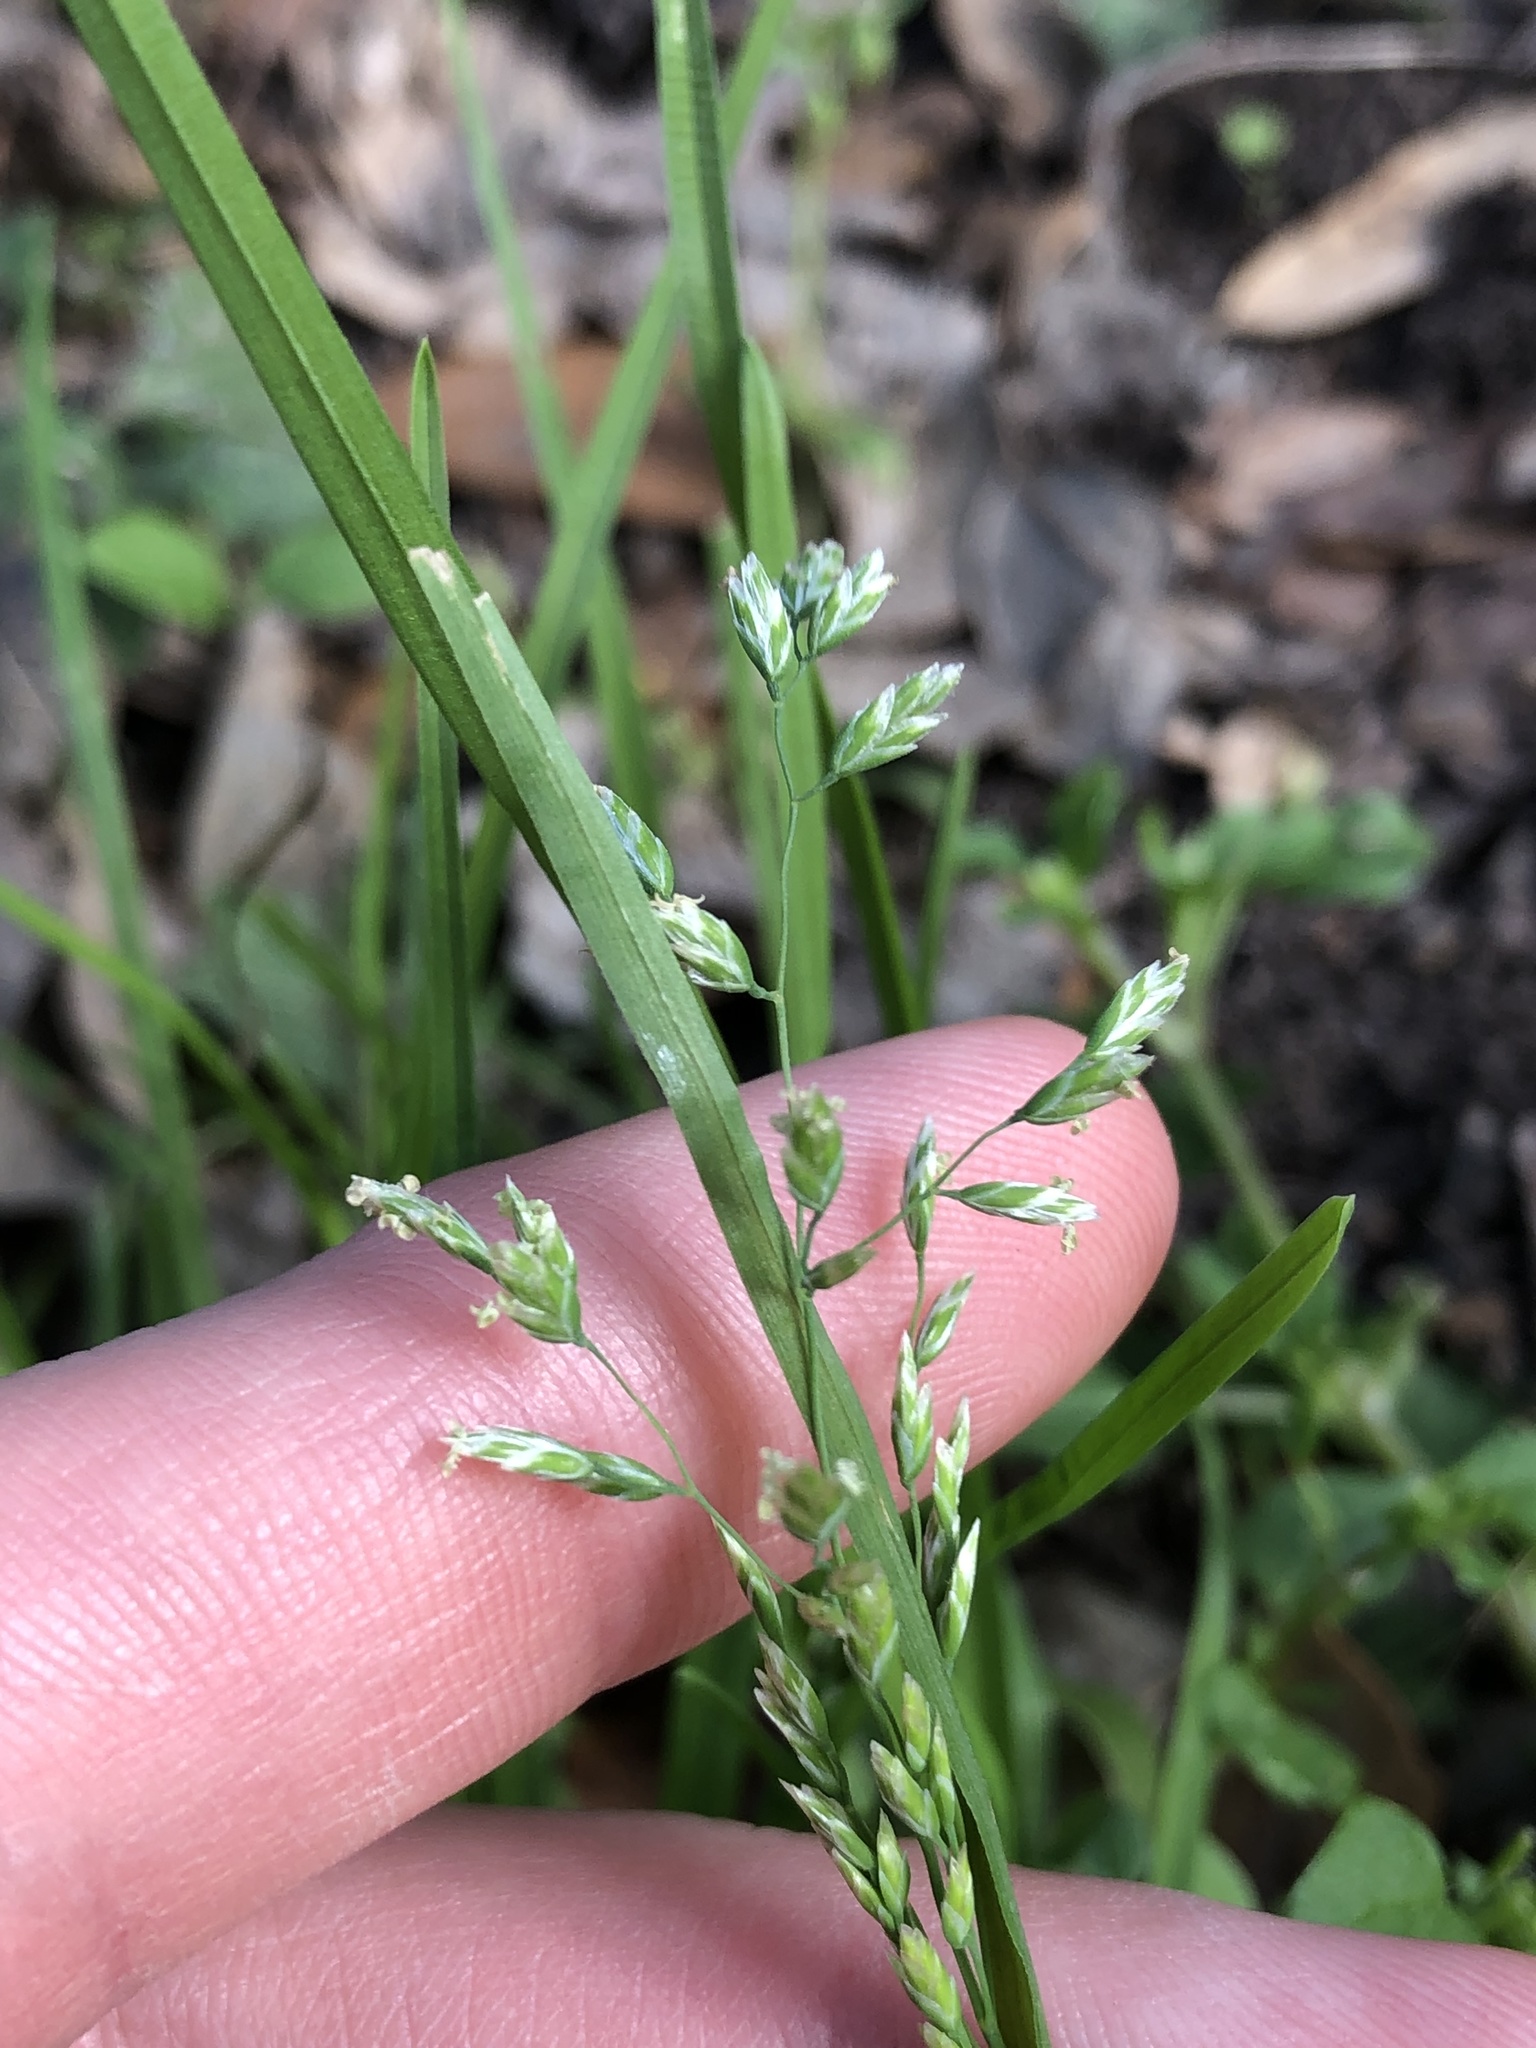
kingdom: Plantae
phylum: Tracheophyta
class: Liliopsida
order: Poales
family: Poaceae
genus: Poa
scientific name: Poa annua
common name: Annual bluegrass
